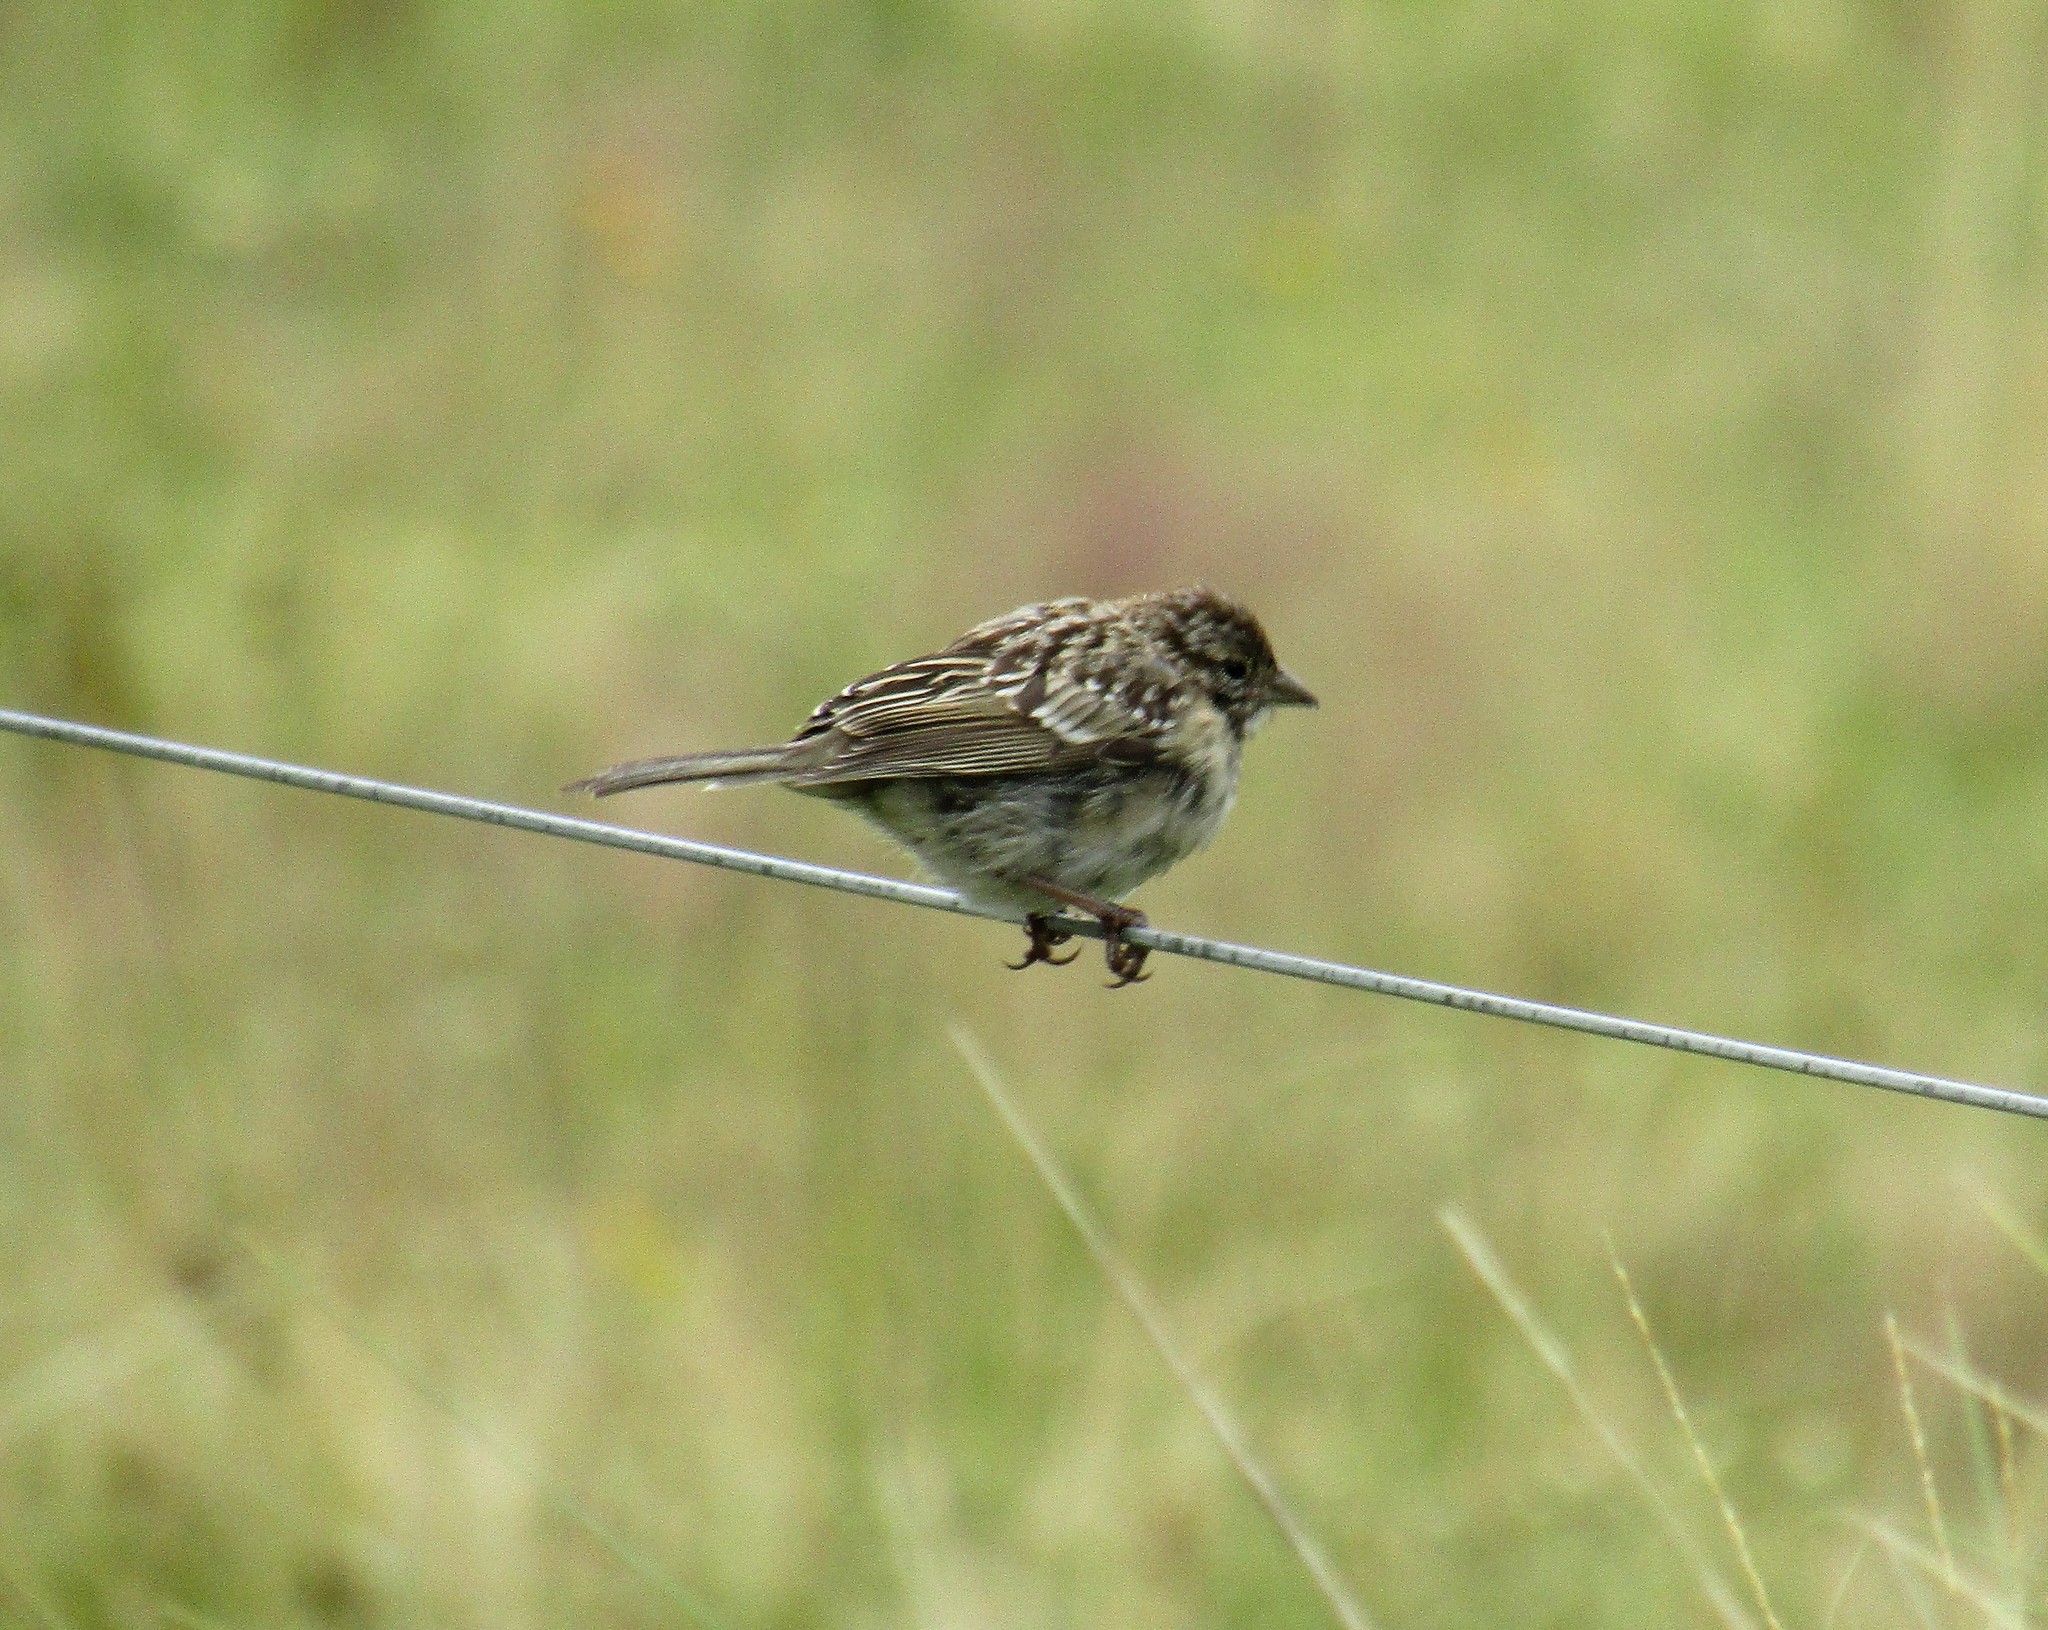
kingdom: Animalia
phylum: Chordata
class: Aves
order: Passeriformes
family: Passerellidae
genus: Zonotrichia
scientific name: Zonotrichia capensis
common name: Rufous-collared sparrow
